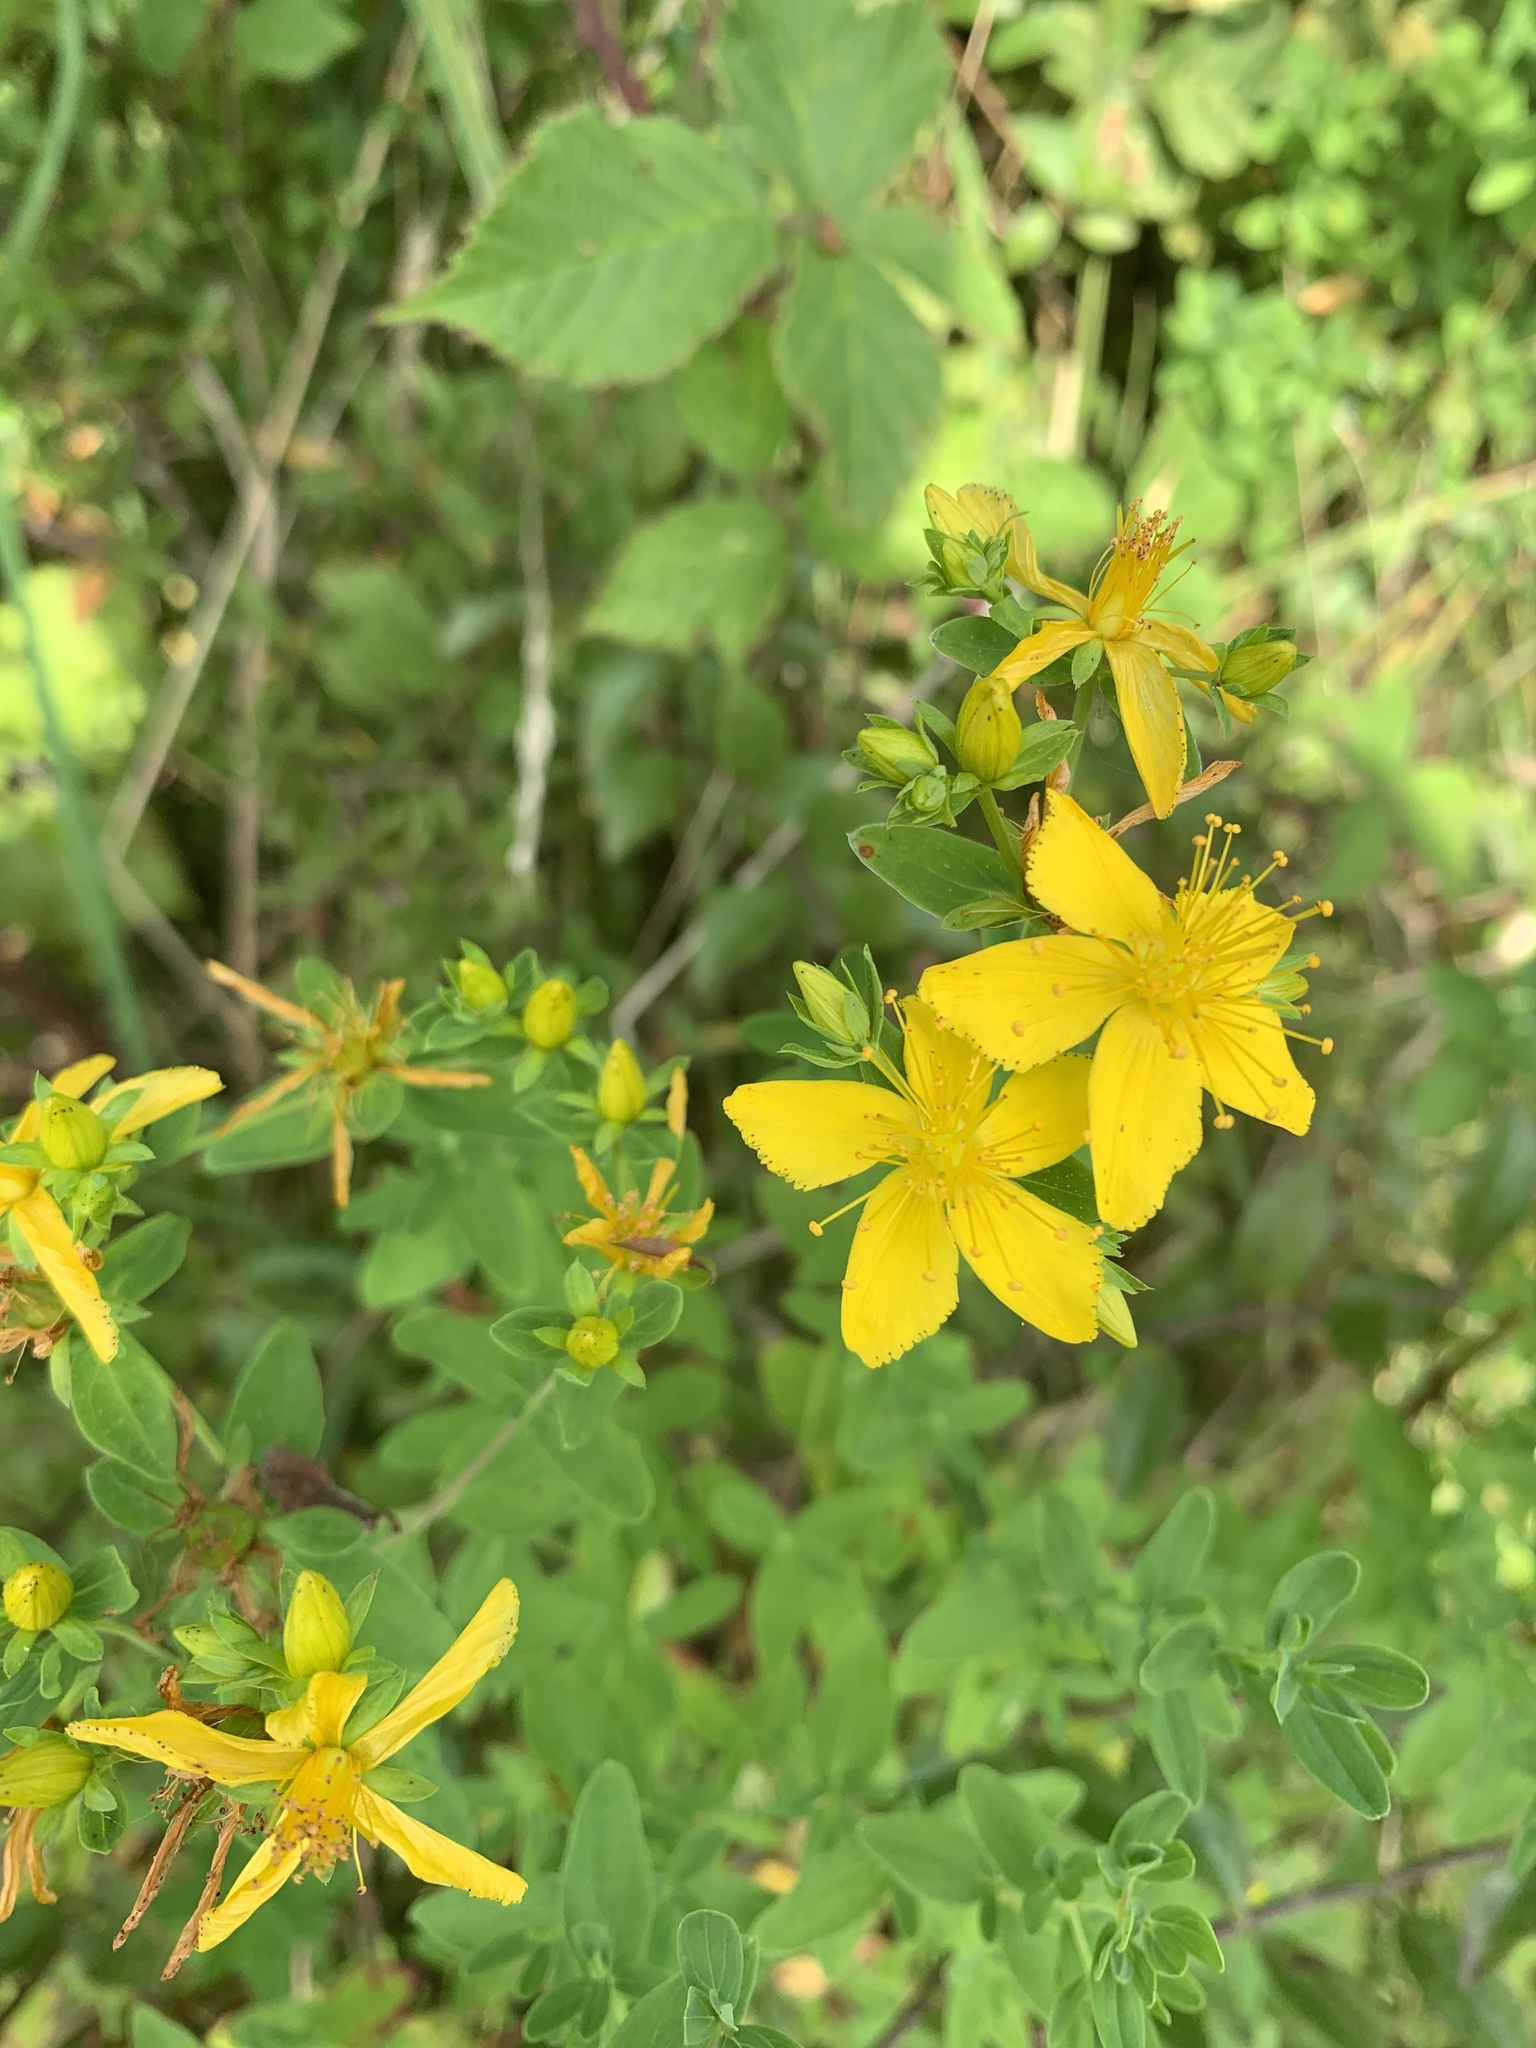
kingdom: Plantae
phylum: Tracheophyta
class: Magnoliopsida
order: Malpighiales
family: Hypericaceae
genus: Hypericum
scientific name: Hypericum perforatum
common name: Common st. johnswort
